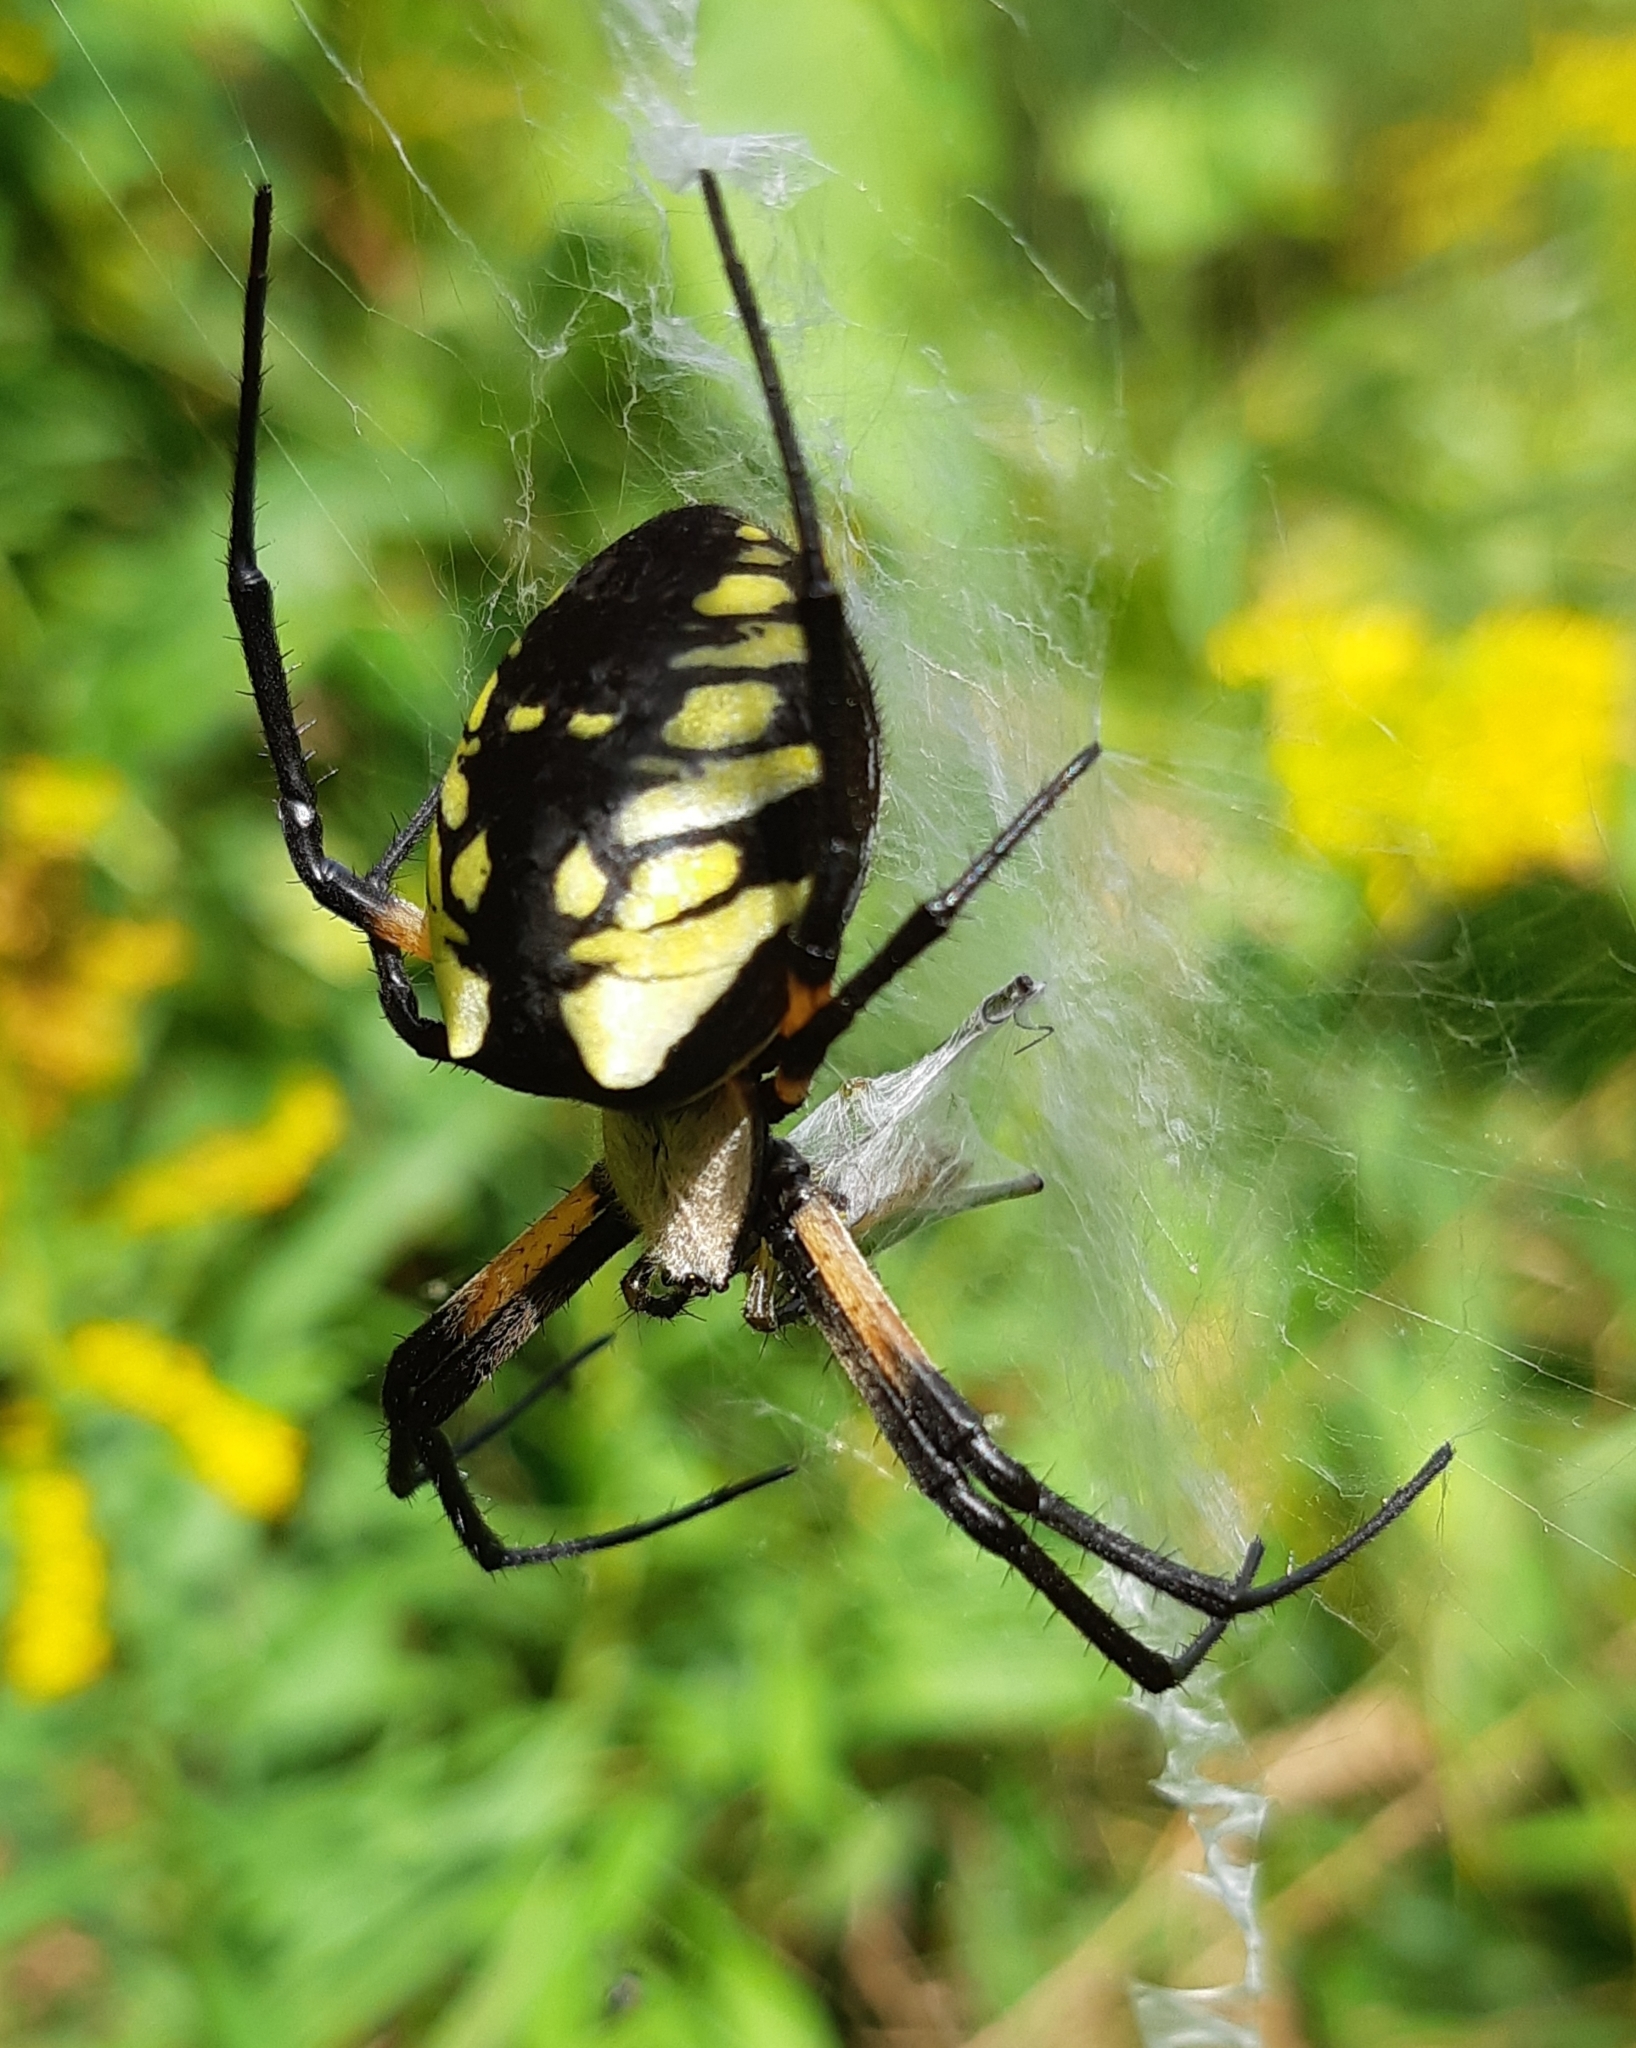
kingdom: Animalia
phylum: Arthropoda
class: Arachnida
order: Araneae
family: Araneidae
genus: Argiope
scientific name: Argiope aurantia
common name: Orb weavers
